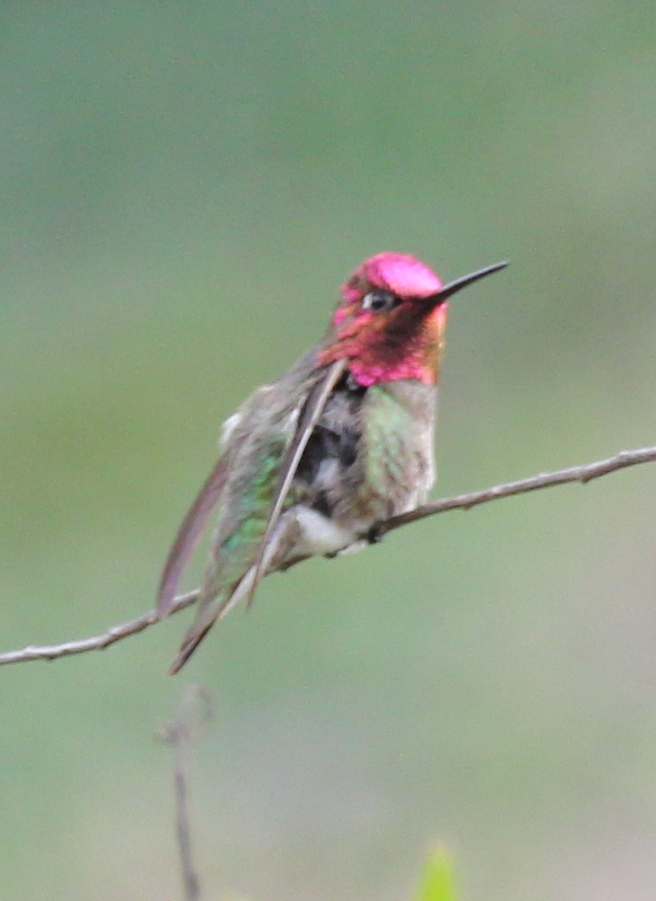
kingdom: Animalia
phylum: Chordata
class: Aves
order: Apodiformes
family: Trochilidae
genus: Calypte
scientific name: Calypte anna
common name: Anna's hummingbird
